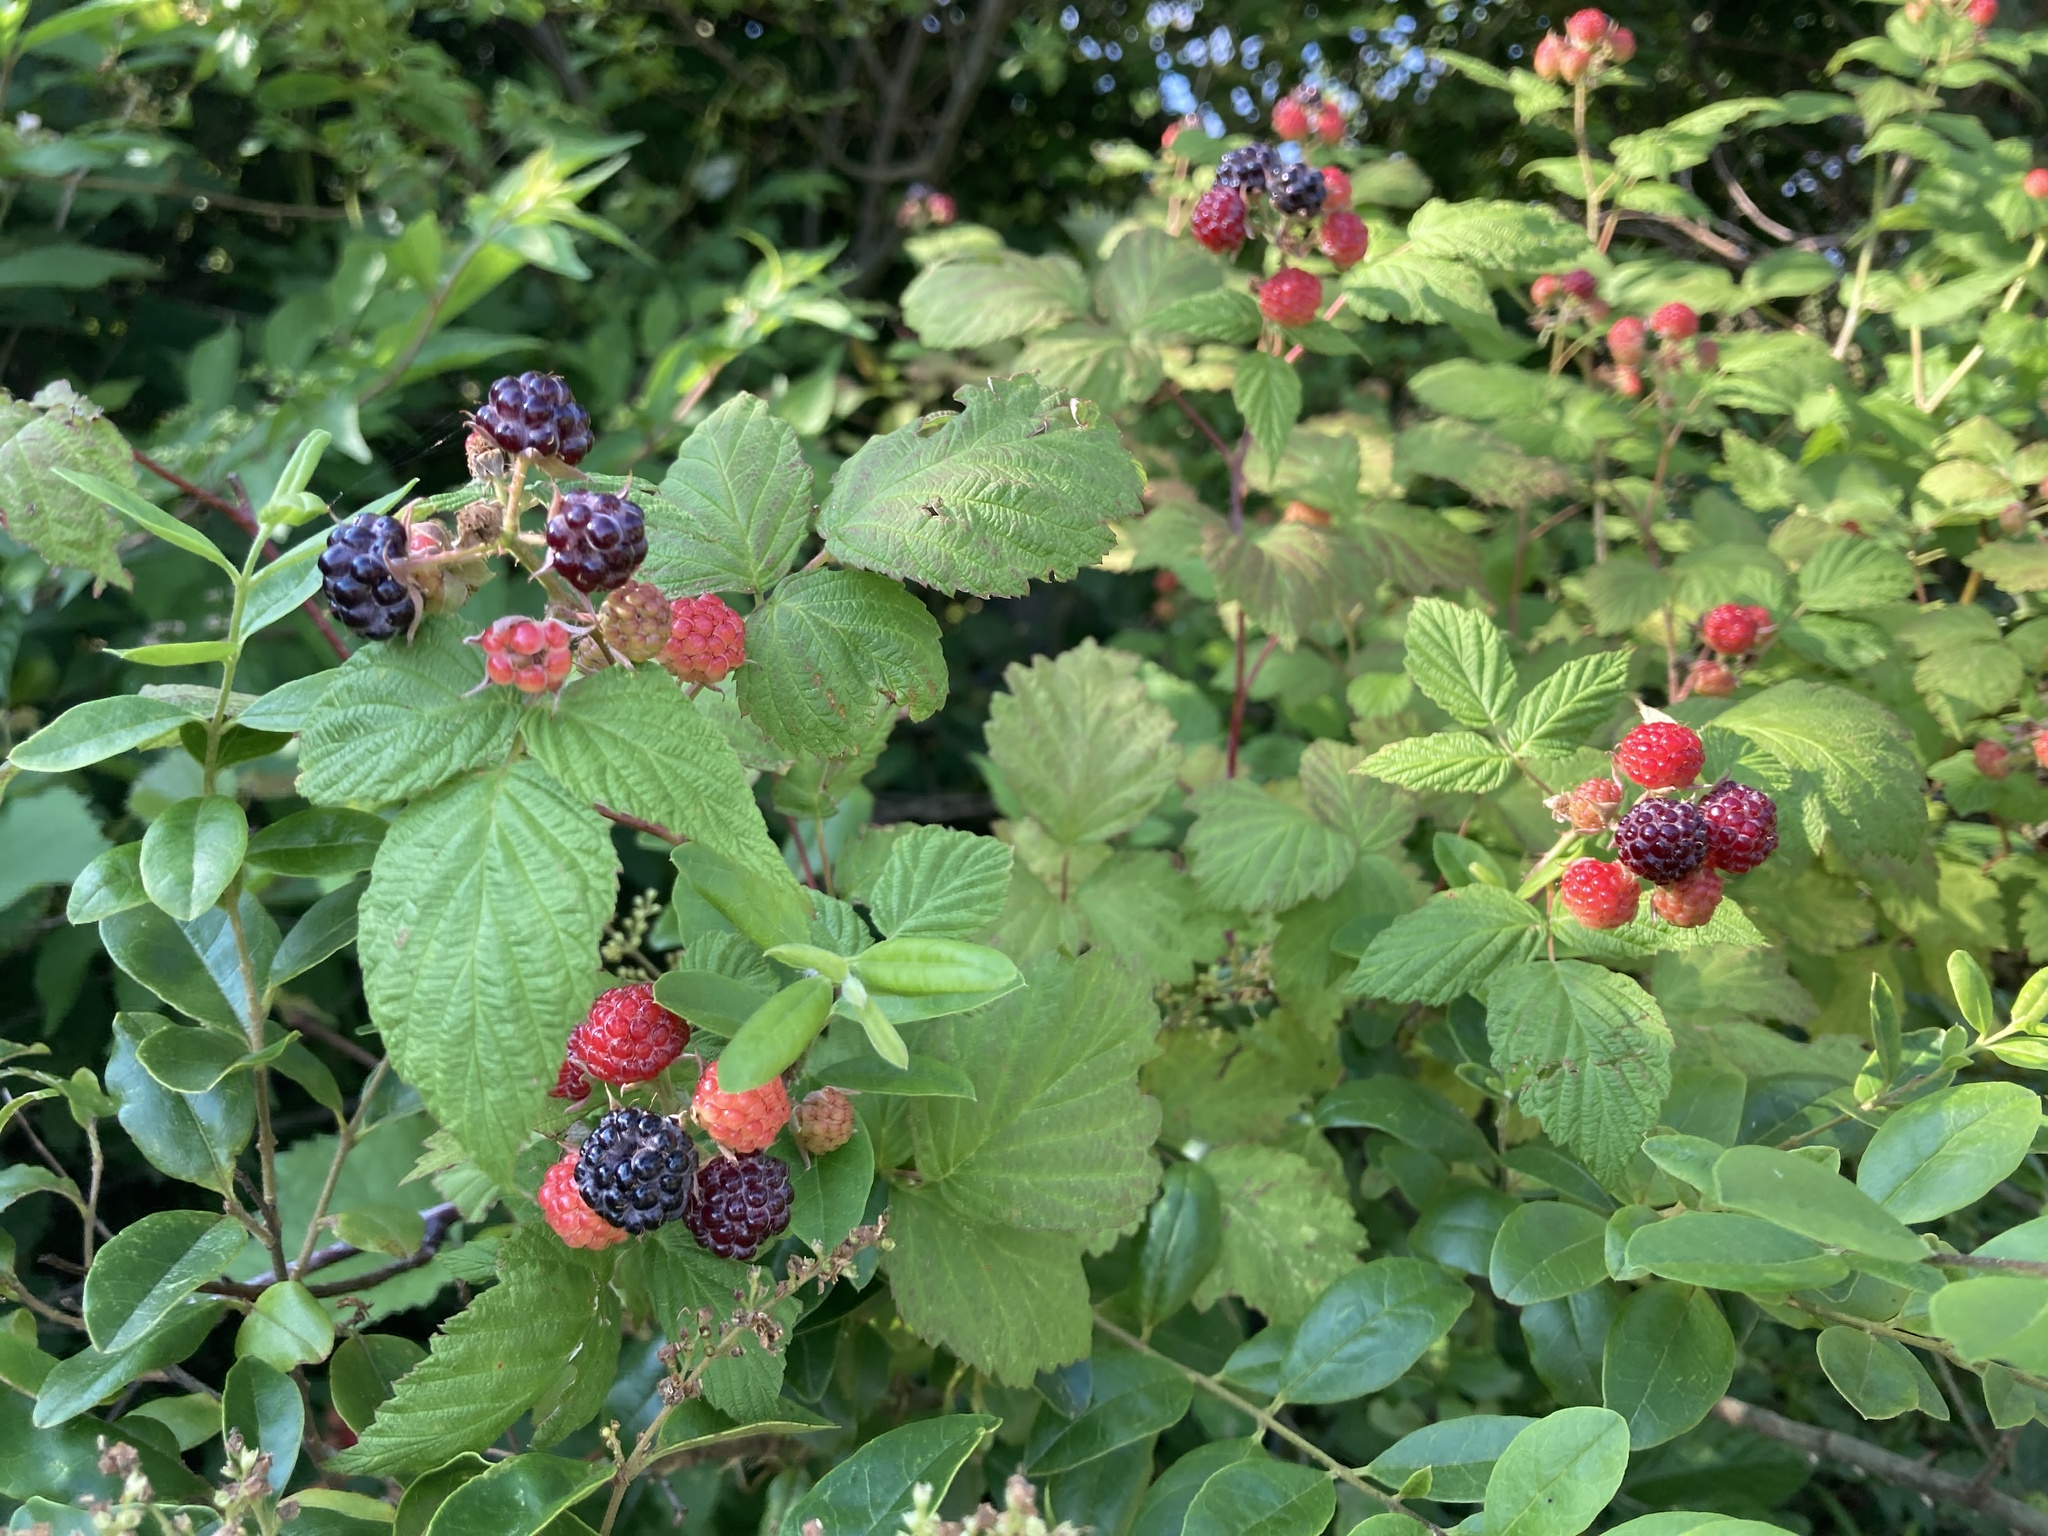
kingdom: Plantae
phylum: Tracheophyta
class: Magnoliopsida
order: Rosales
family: Rosaceae
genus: Rubus
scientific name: Rubus occidentalis
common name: Black raspberry
